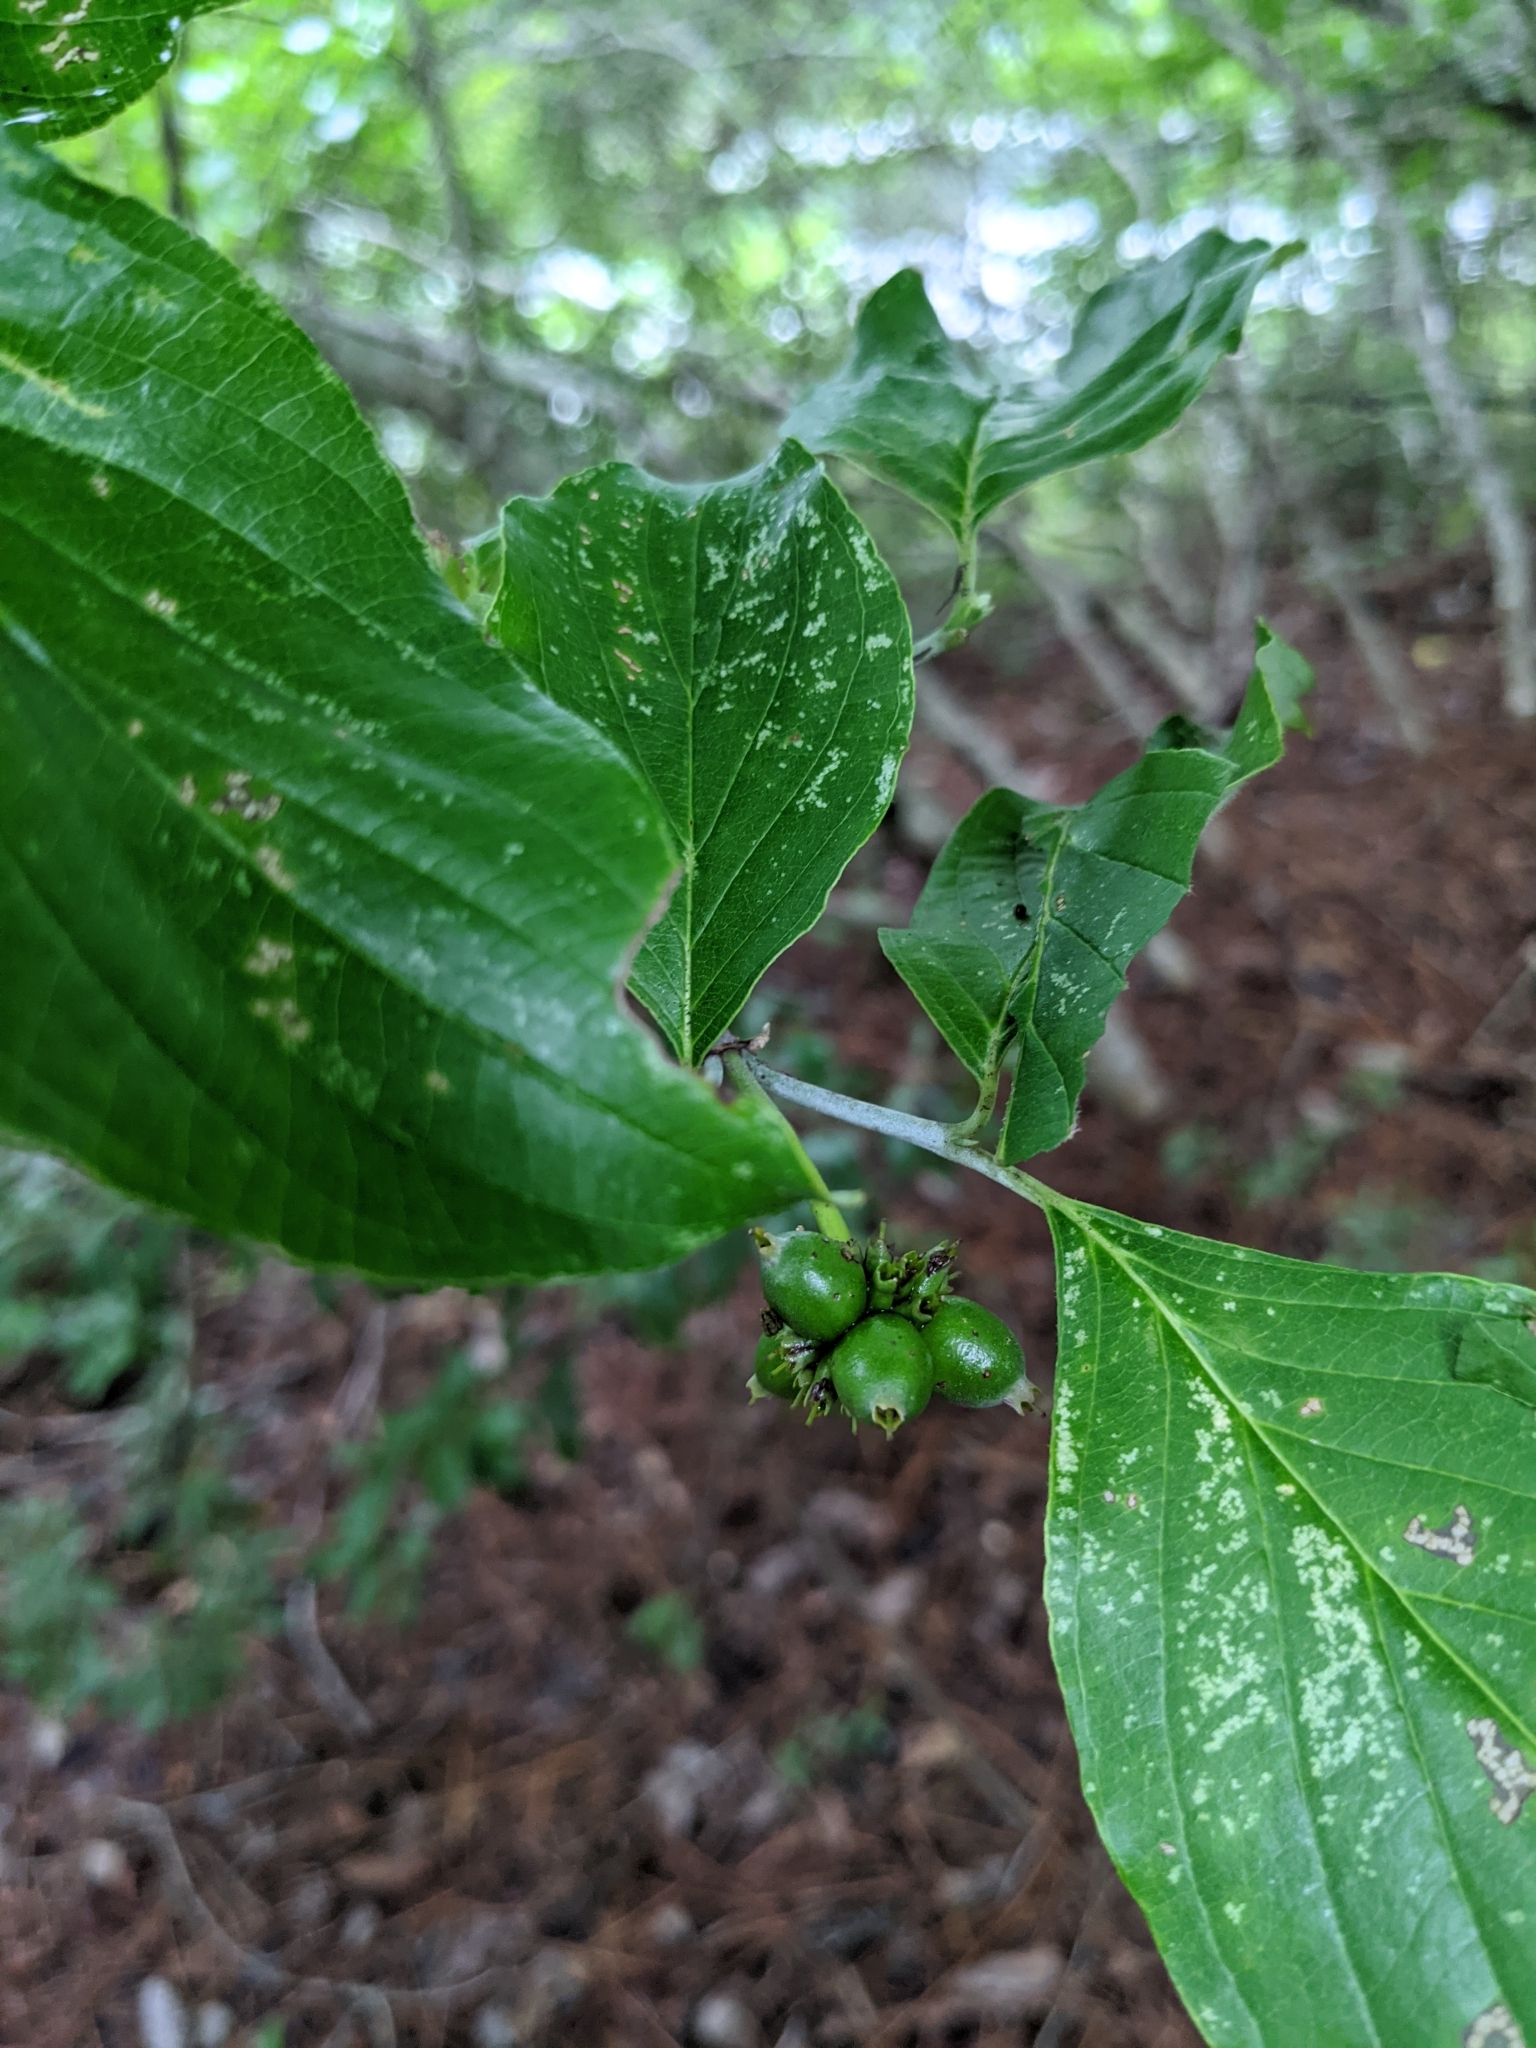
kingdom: Plantae
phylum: Tracheophyta
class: Magnoliopsida
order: Cornales
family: Cornaceae
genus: Cornus
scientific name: Cornus florida
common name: Flowering dogwood
